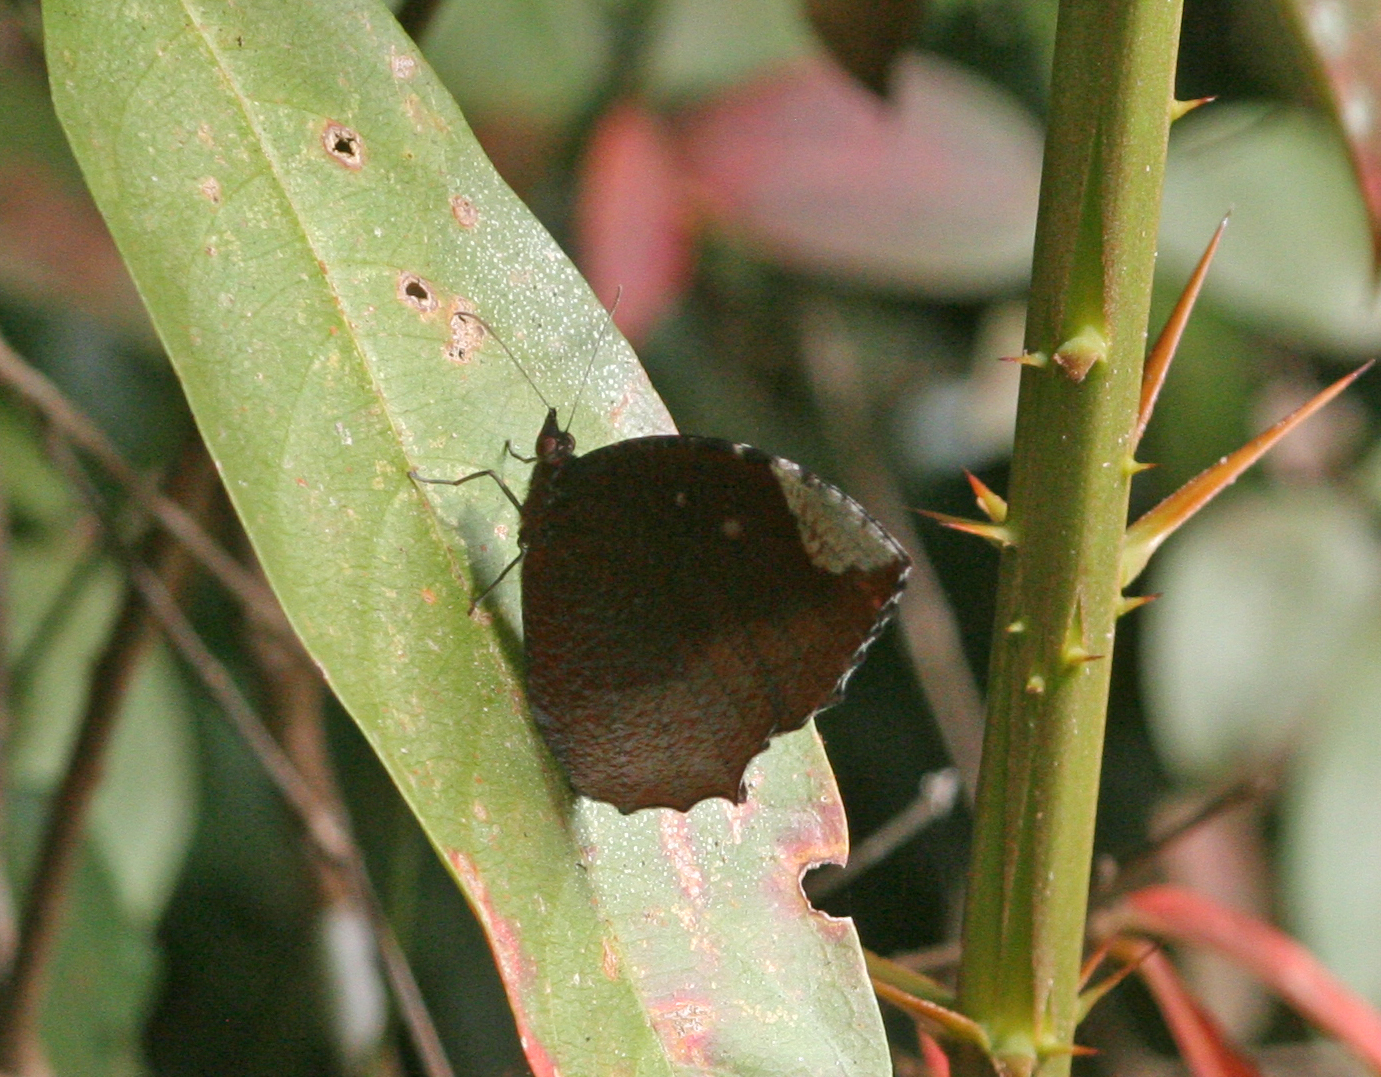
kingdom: Animalia
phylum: Arthropoda
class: Insecta
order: Lepidoptera
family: Nymphalidae
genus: Elymnias
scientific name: Elymnias hypermnestra
